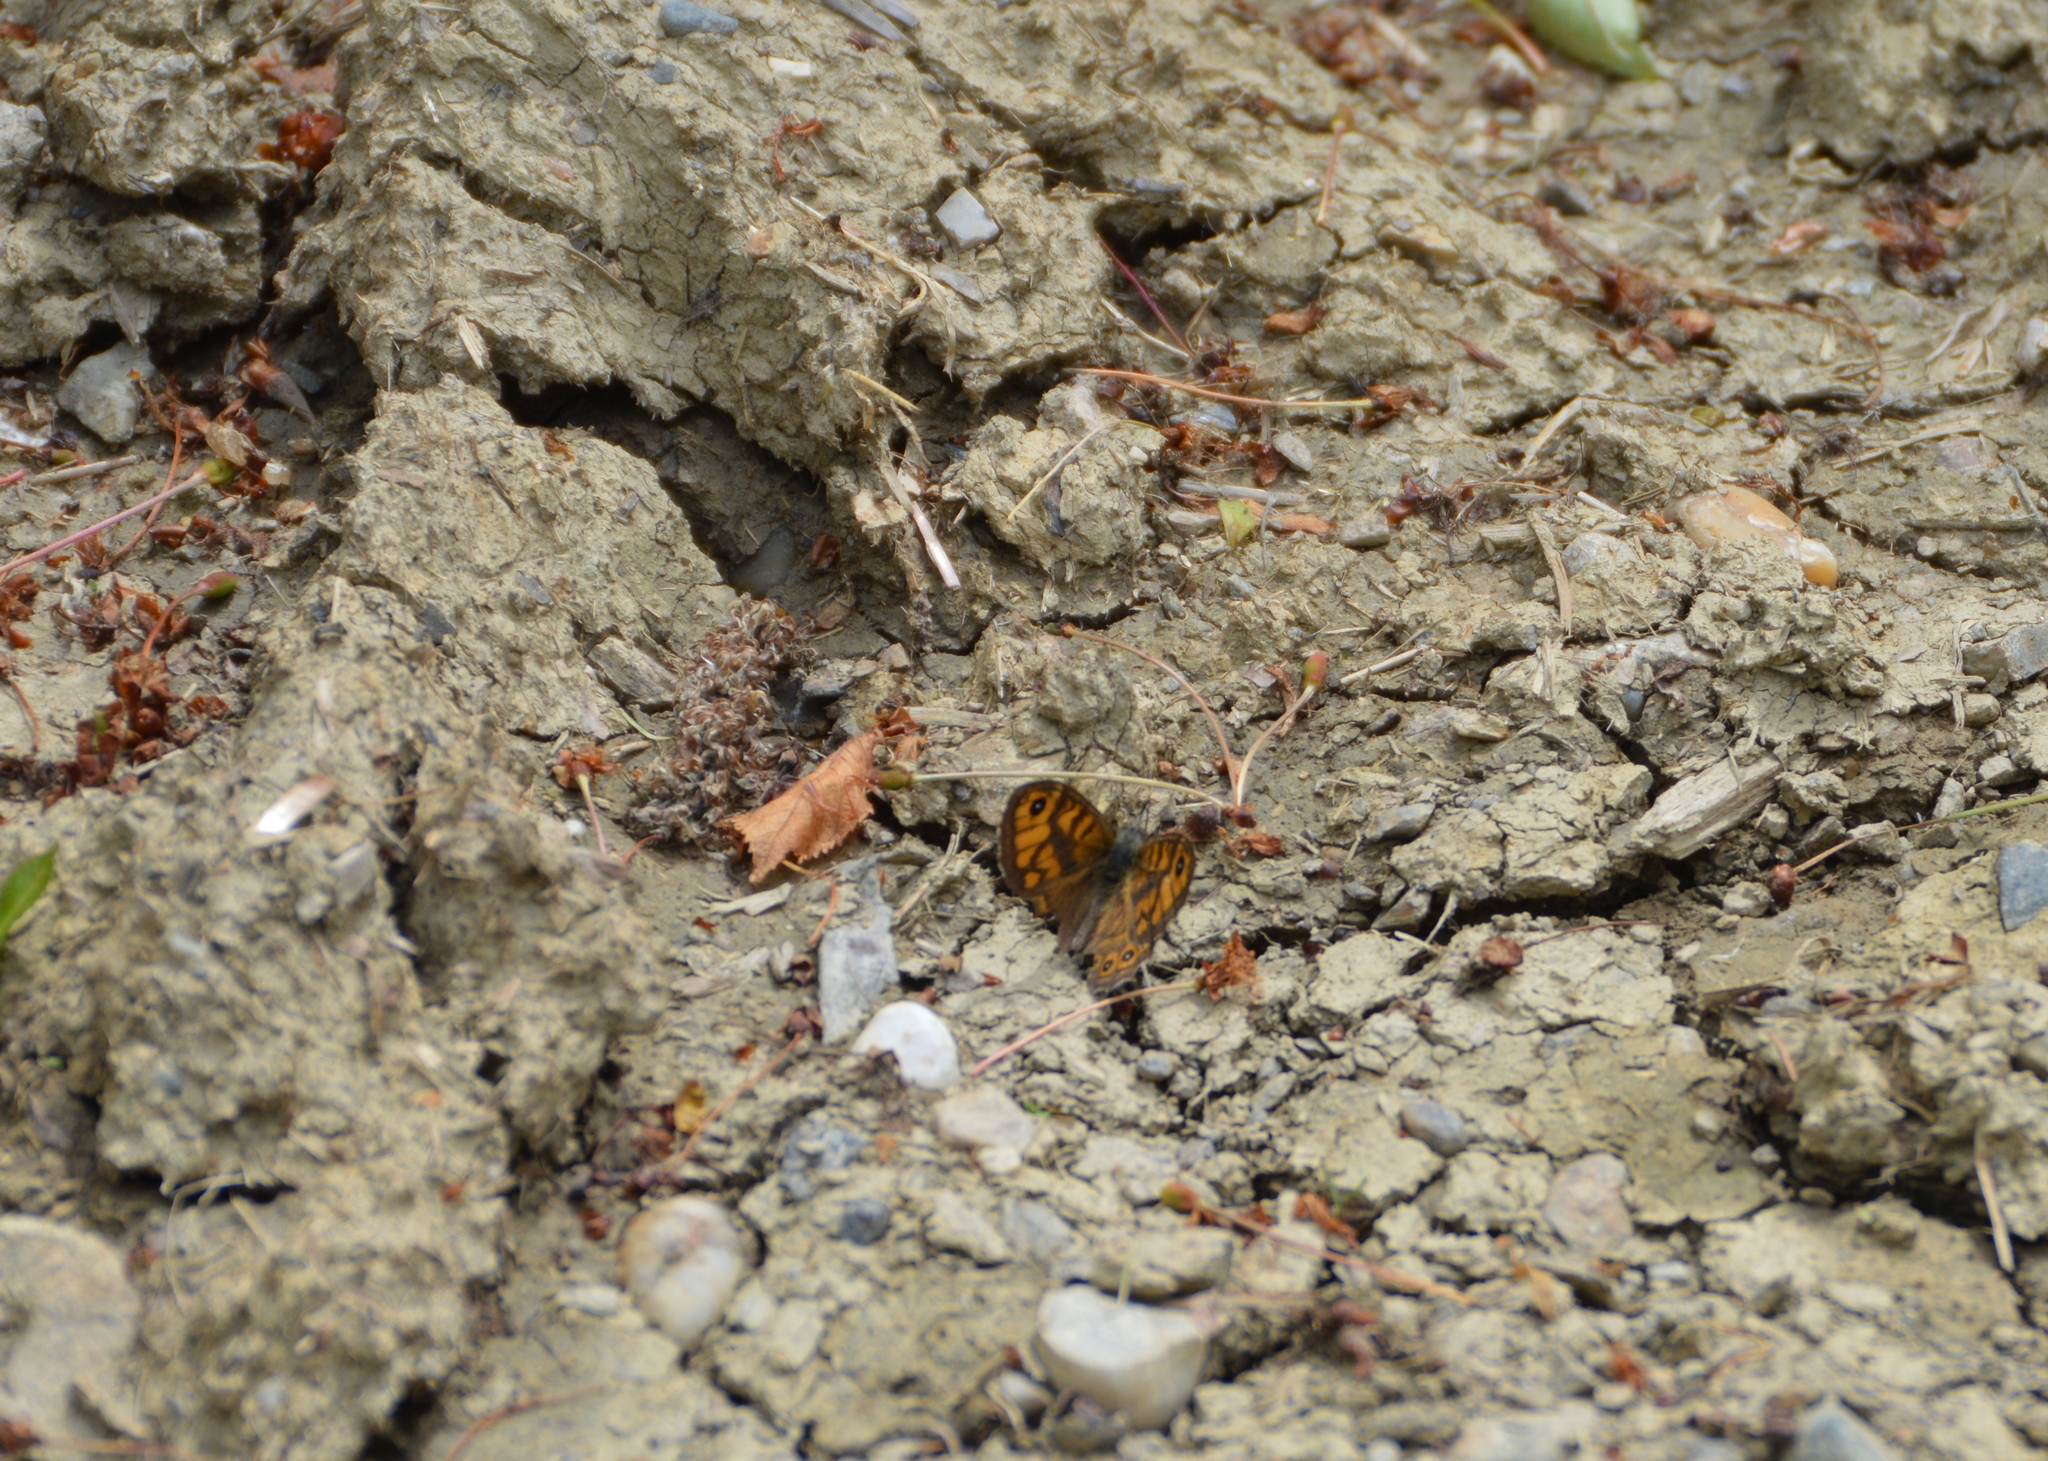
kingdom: Animalia
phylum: Arthropoda
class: Insecta
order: Lepidoptera
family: Nymphalidae
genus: Pararge
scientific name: Pararge Lasiommata megera
